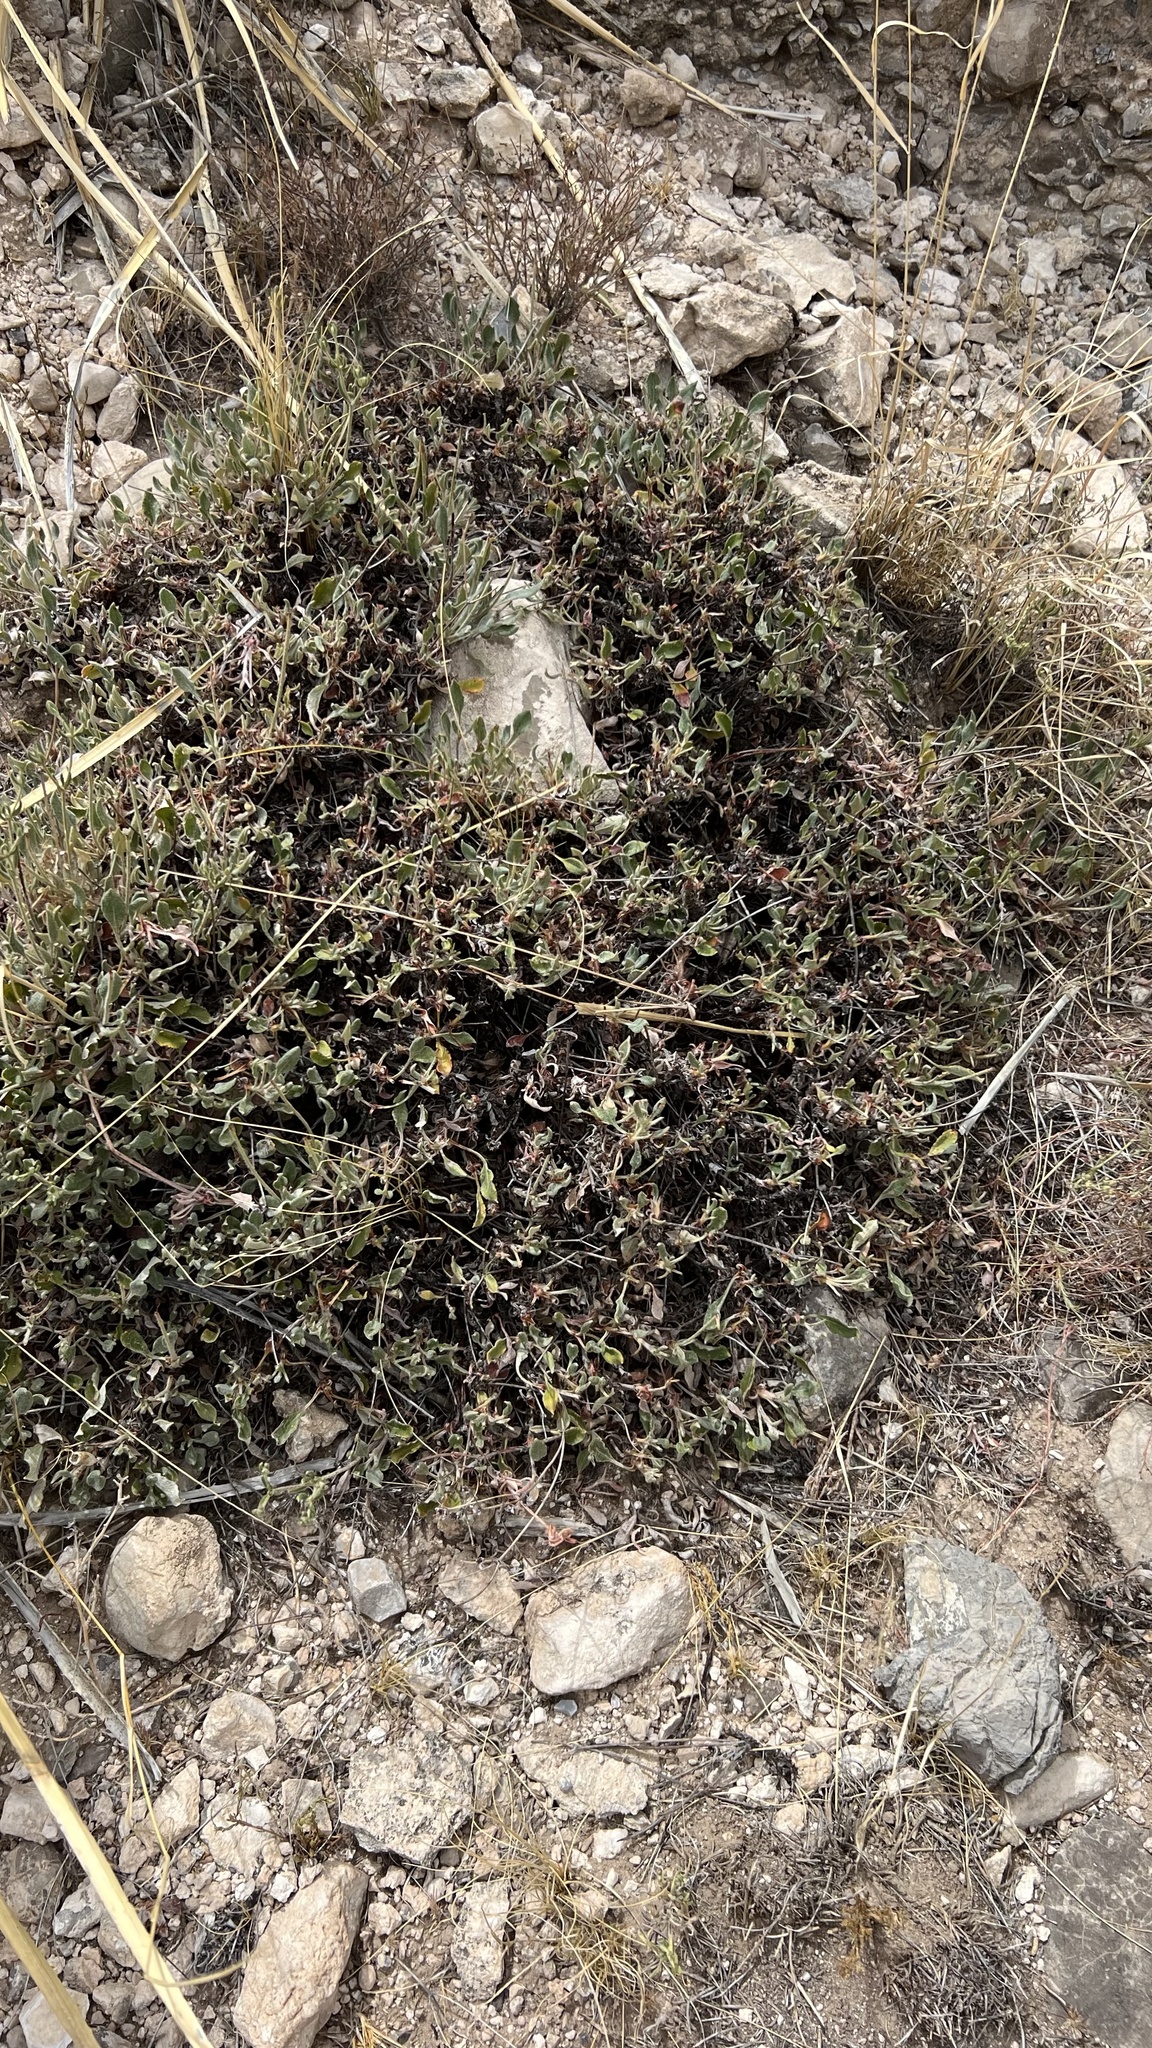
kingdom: Plantae
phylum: Tracheophyta
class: Magnoliopsida
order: Caryophyllales
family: Polygonaceae
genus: Eriogonum
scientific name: Eriogonum jamesii
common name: Antelope-sage
